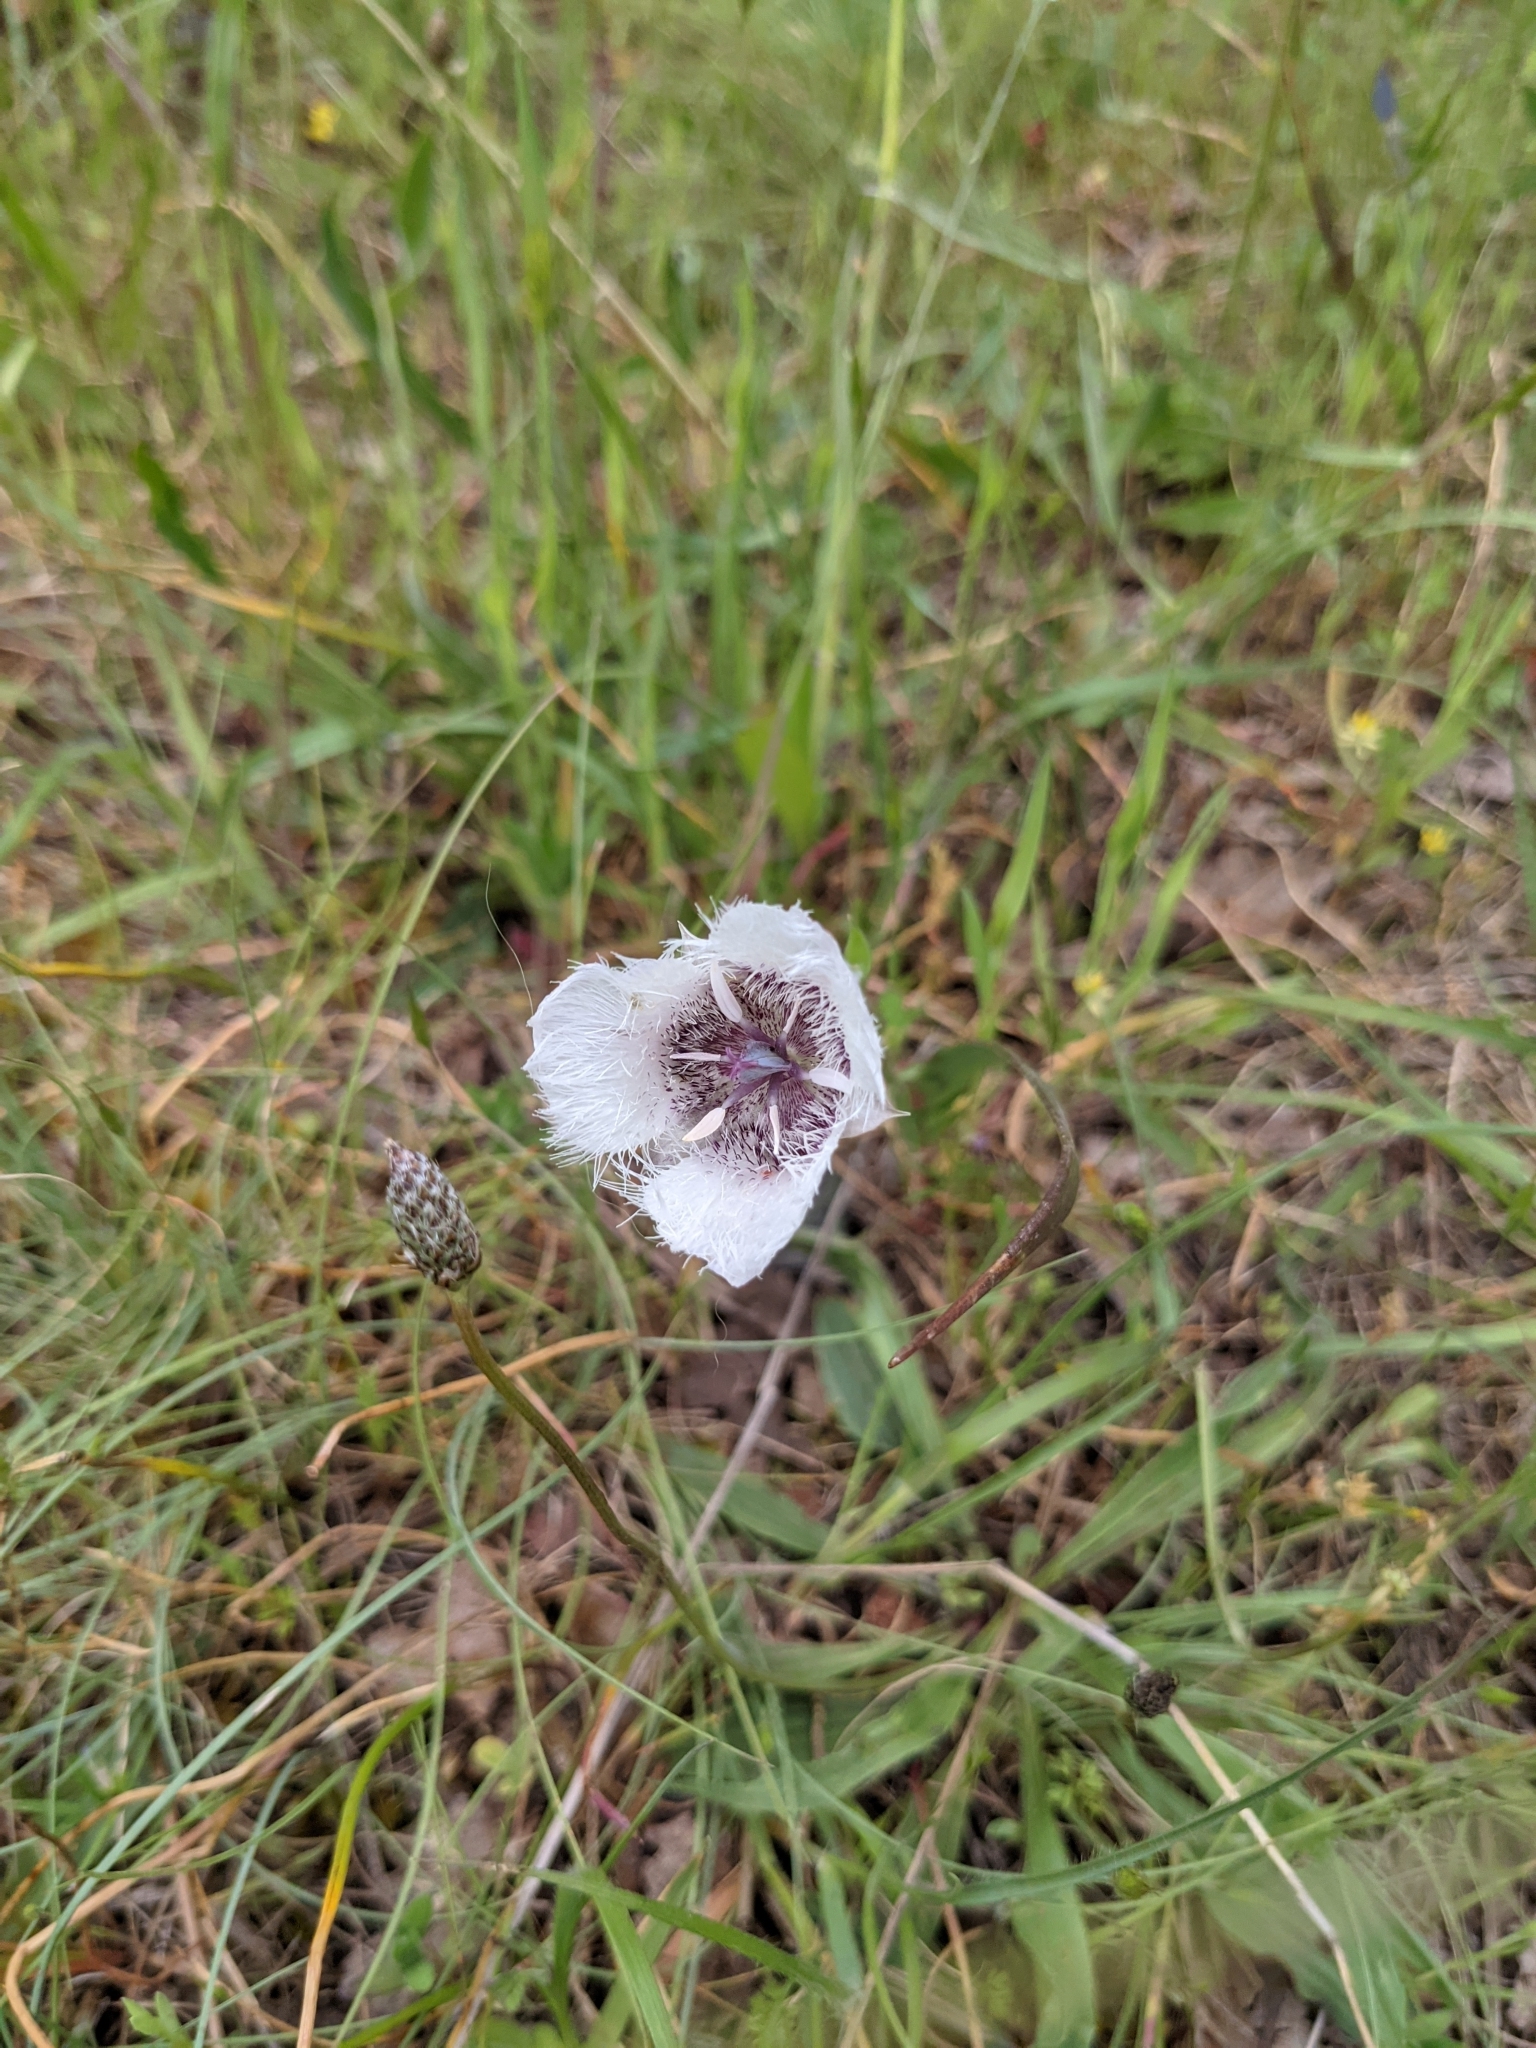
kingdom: Plantae
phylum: Tracheophyta
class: Liliopsida
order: Liliales
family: Liliaceae
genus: Calochortus
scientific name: Calochortus tolmiei
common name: Pussy-ears
